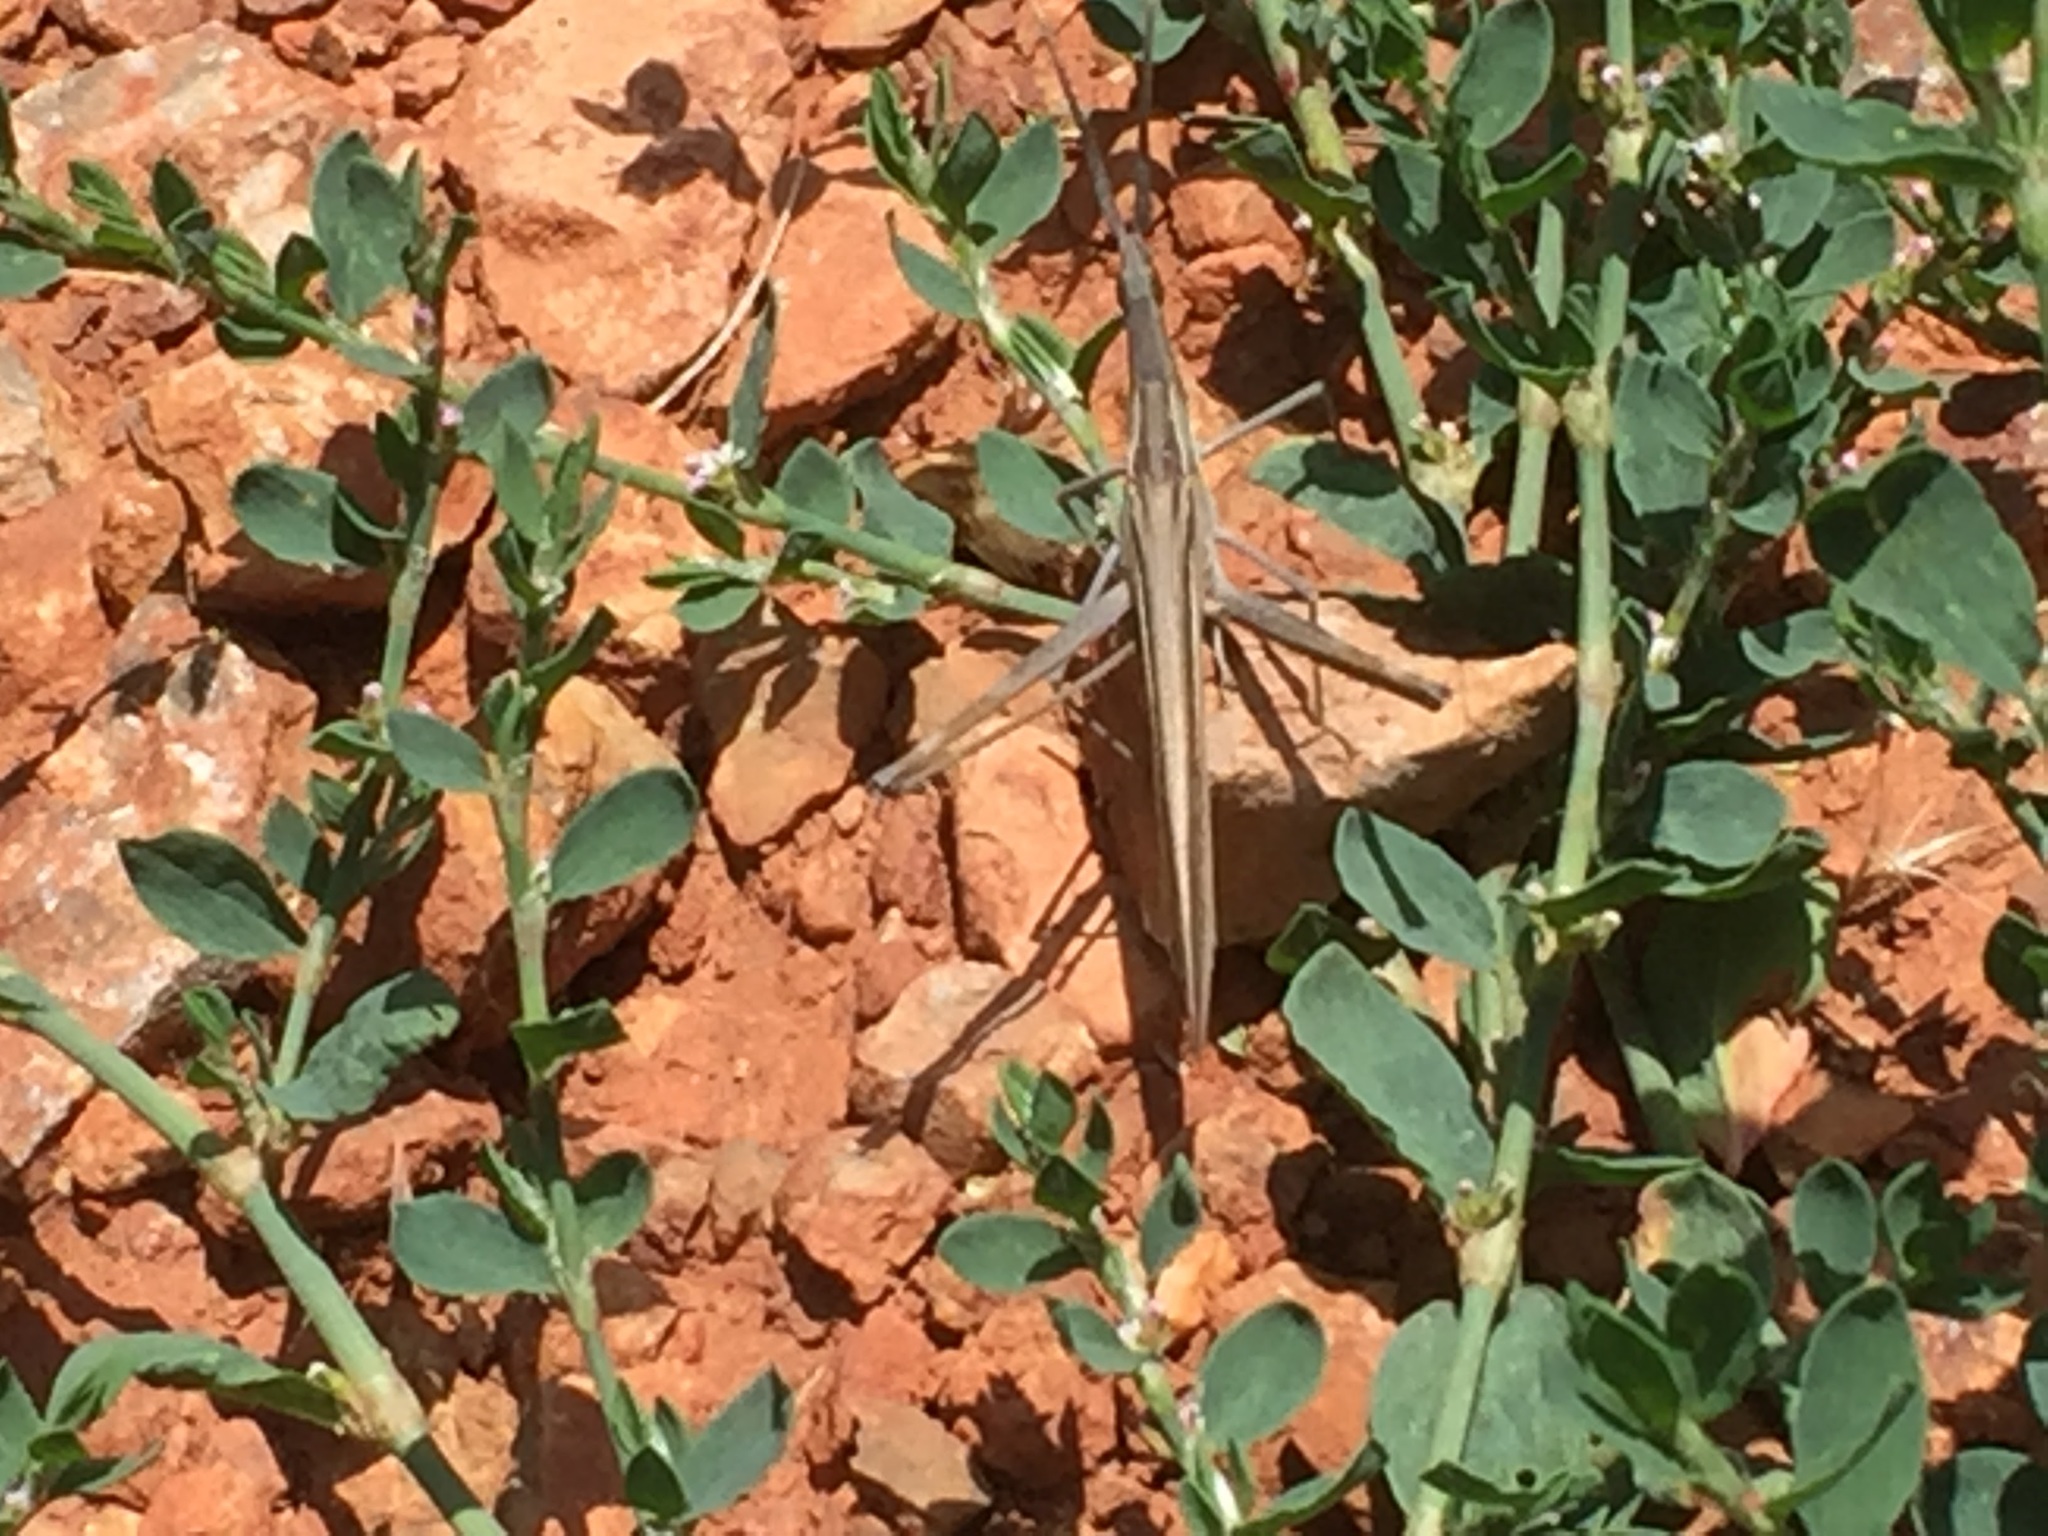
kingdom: Animalia
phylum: Arthropoda
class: Insecta
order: Orthoptera
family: Acrididae
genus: Acrida
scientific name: Acrida anatolica
